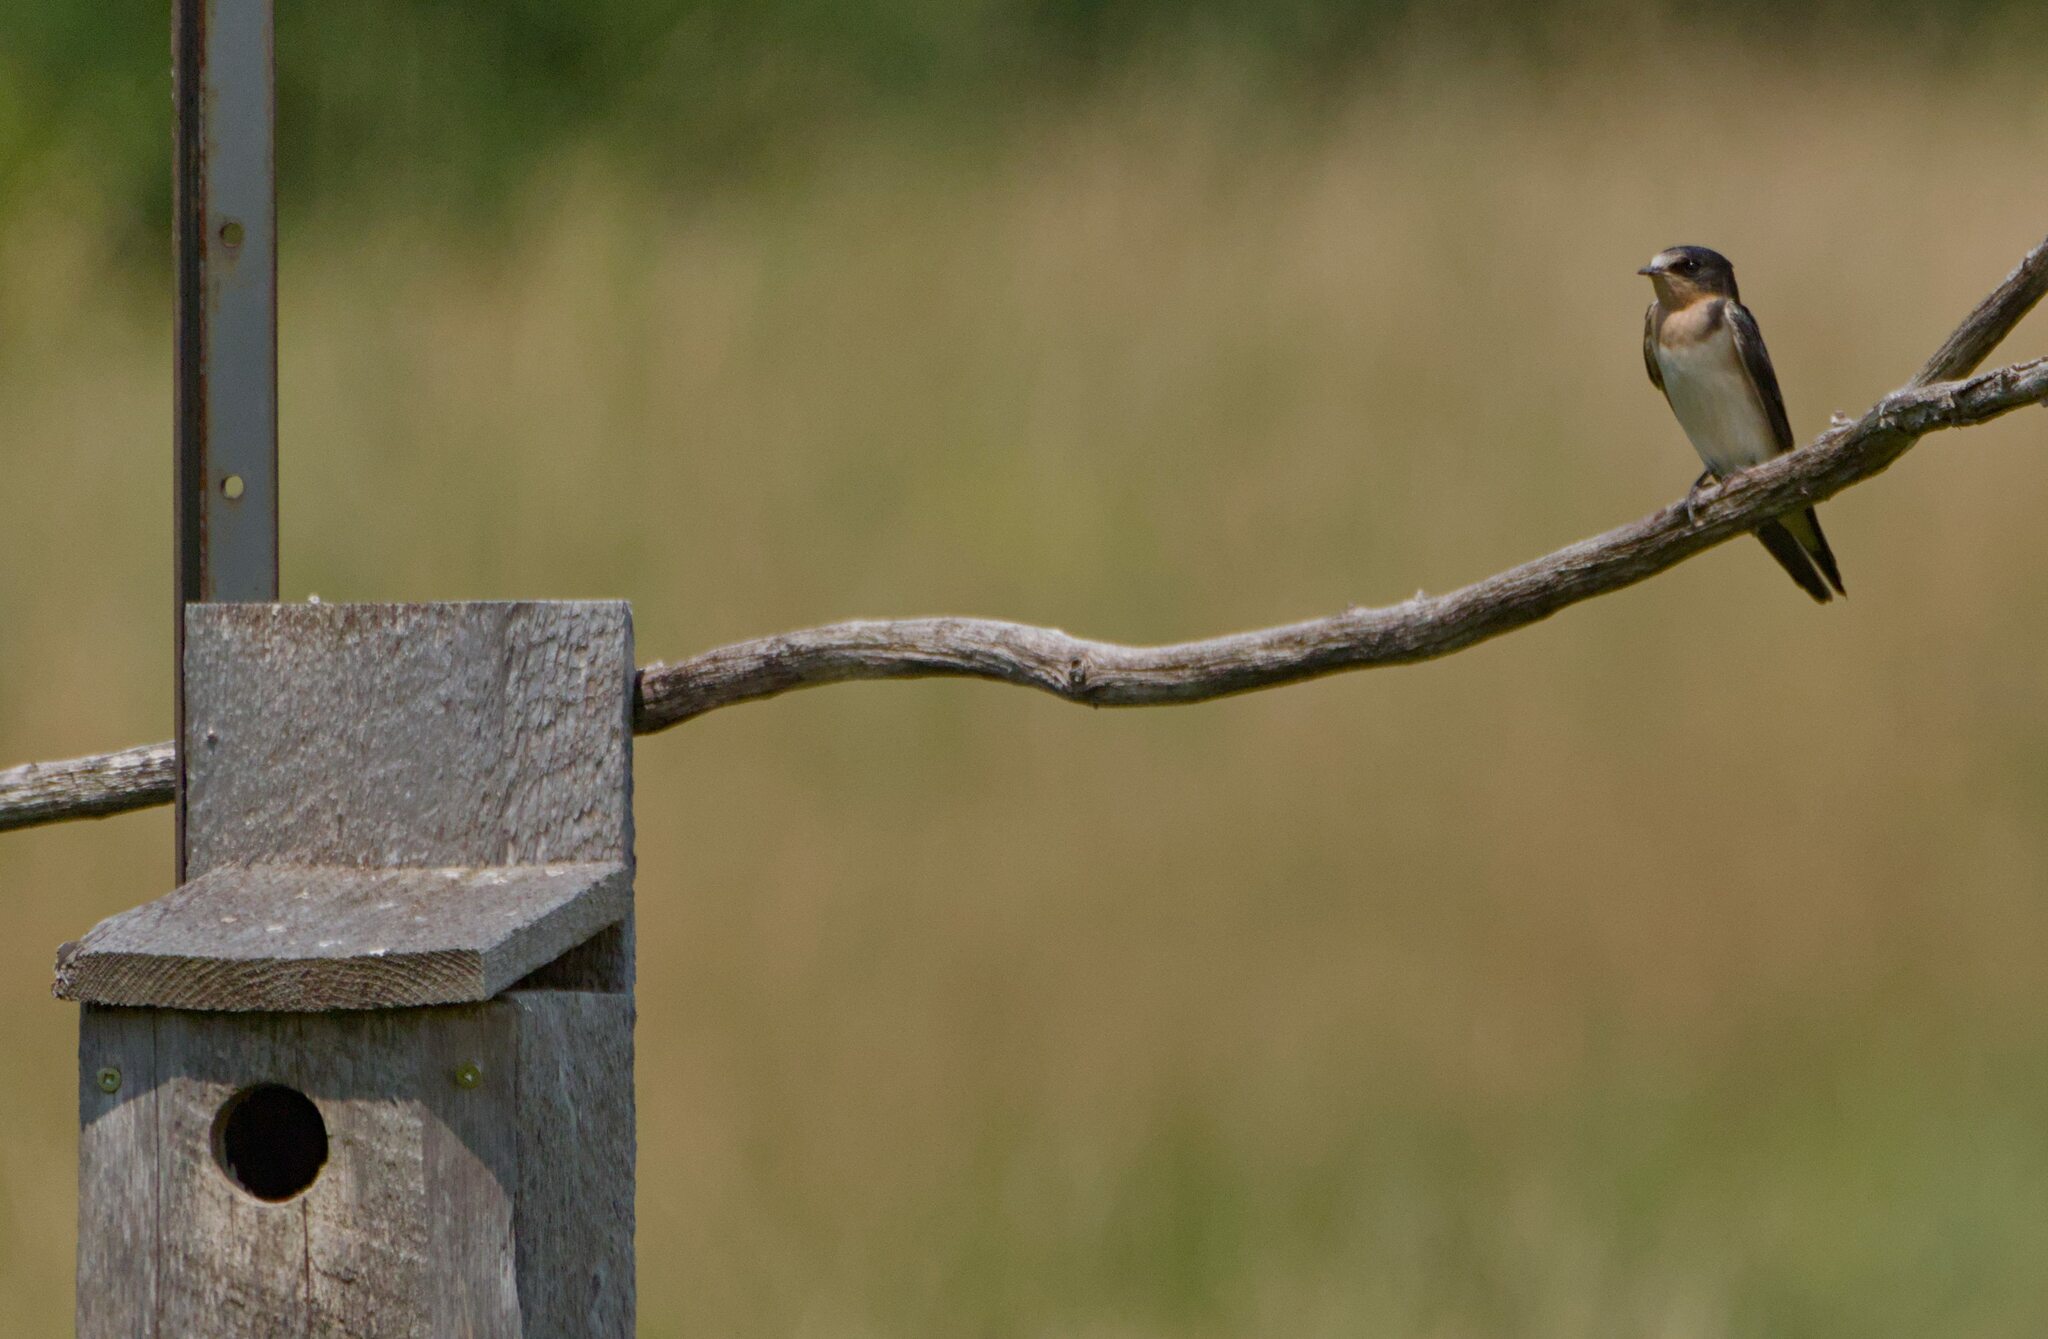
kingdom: Animalia
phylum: Chordata
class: Aves
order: Passeriformes
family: Hirundinidae
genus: Hirundo
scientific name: Hirundo rustica
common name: Barn swallow
